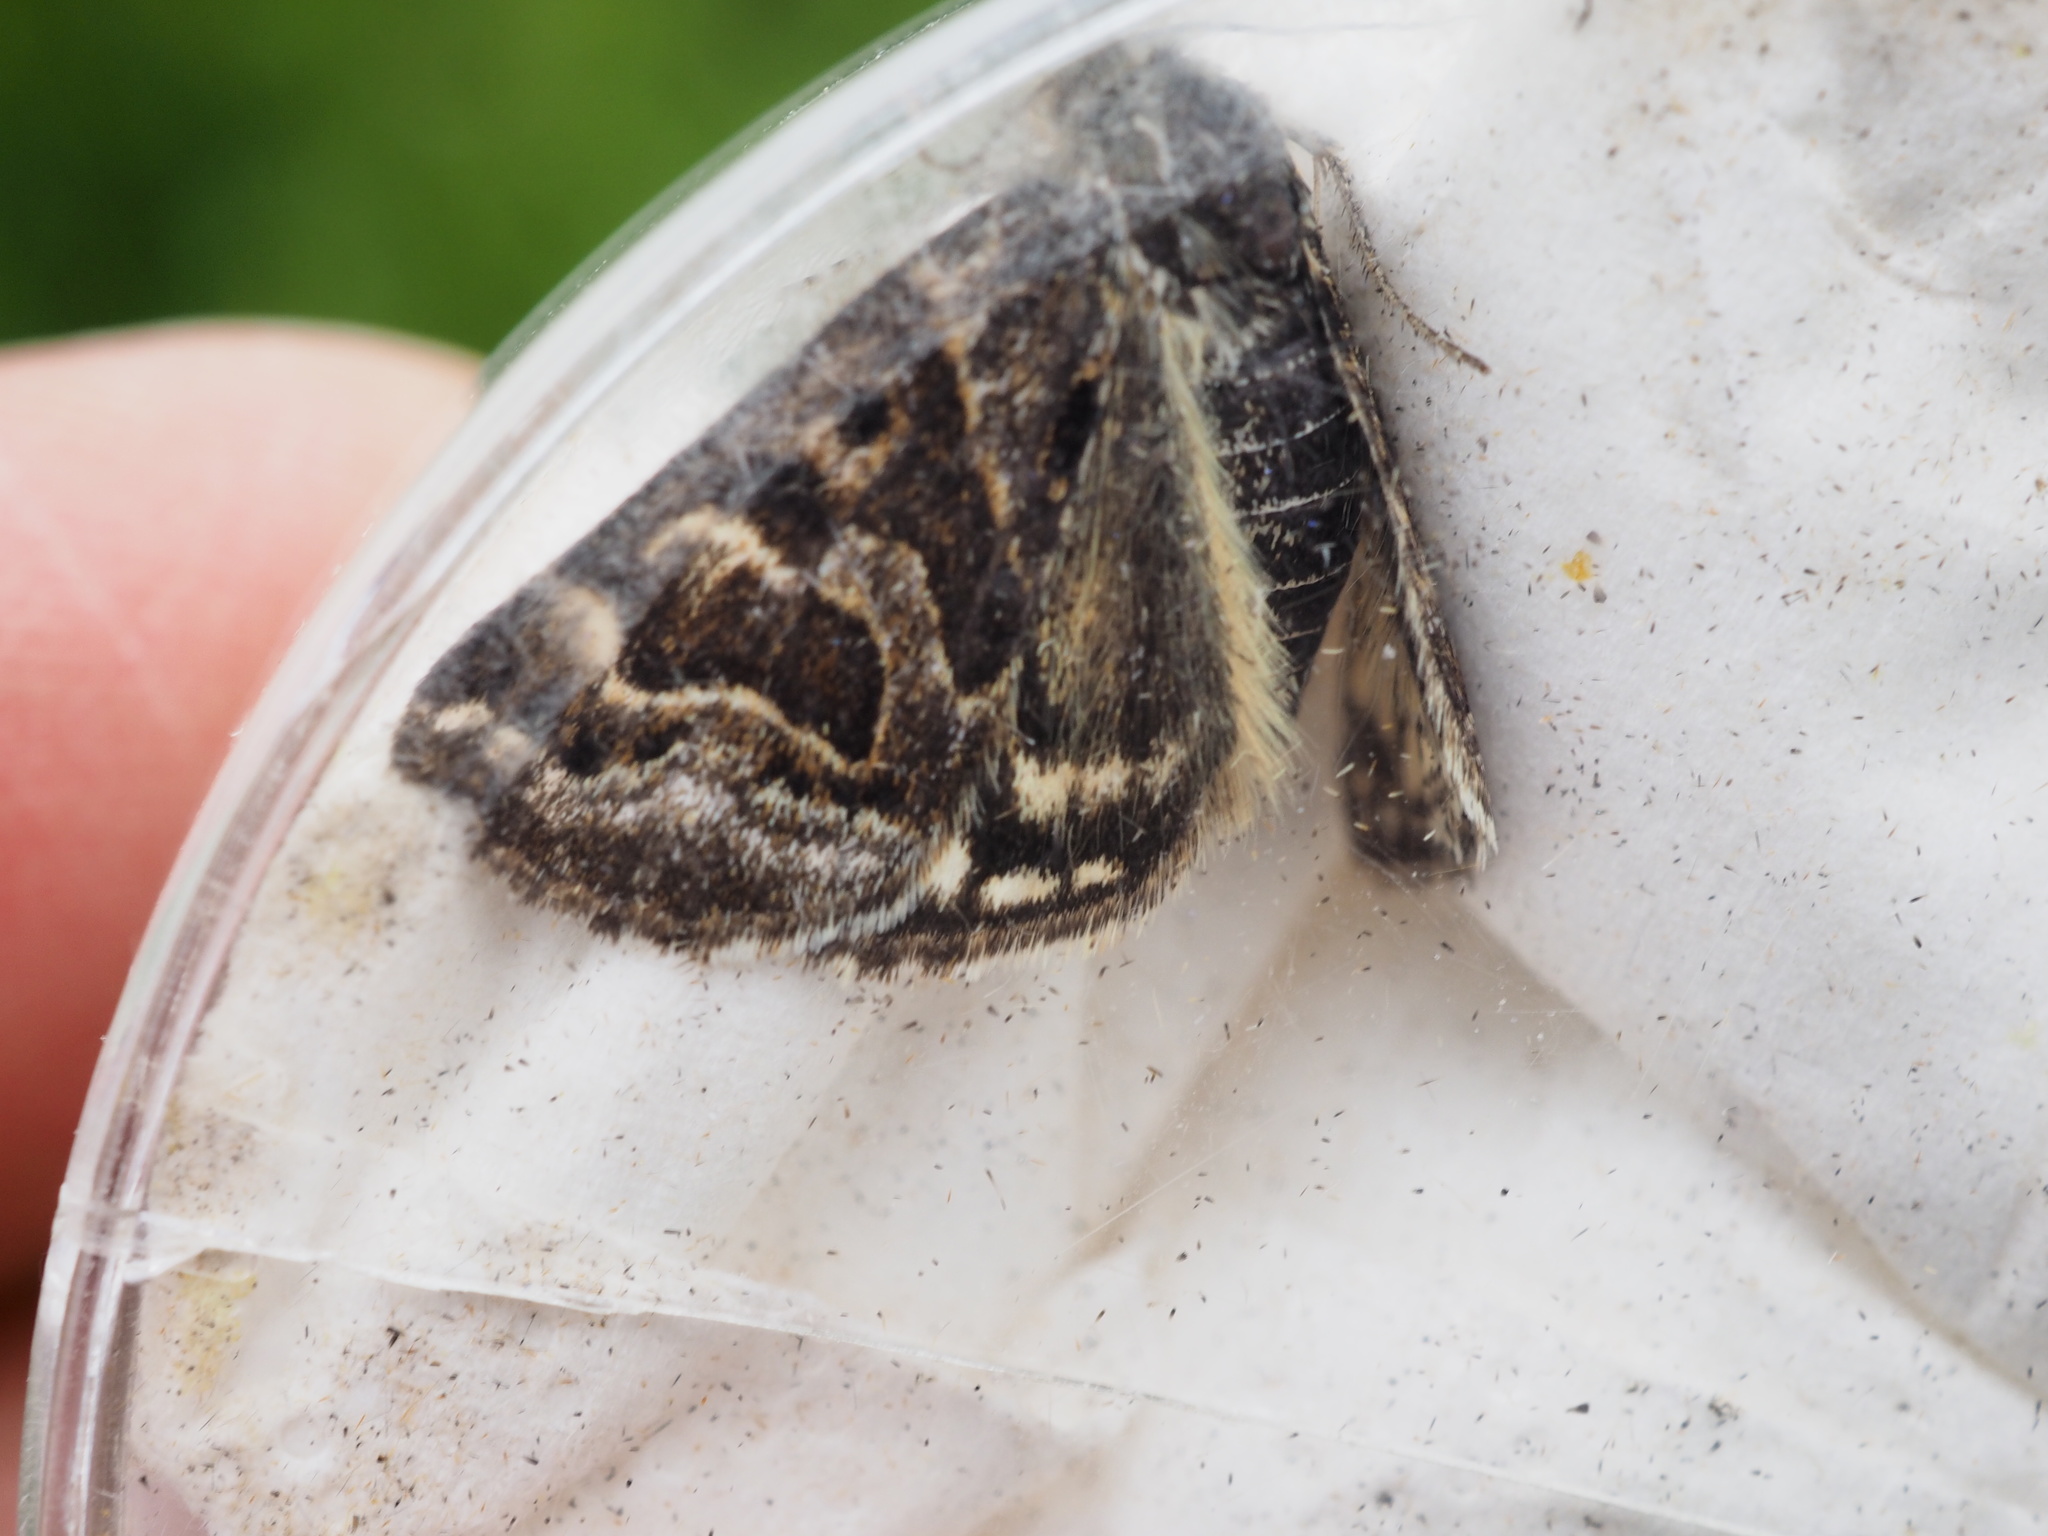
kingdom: Animalia
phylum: Arthropoda
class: Insecta
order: Lepidoptera
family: Erebidae
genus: Callistege
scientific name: Callistege mi
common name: Mother shipton
